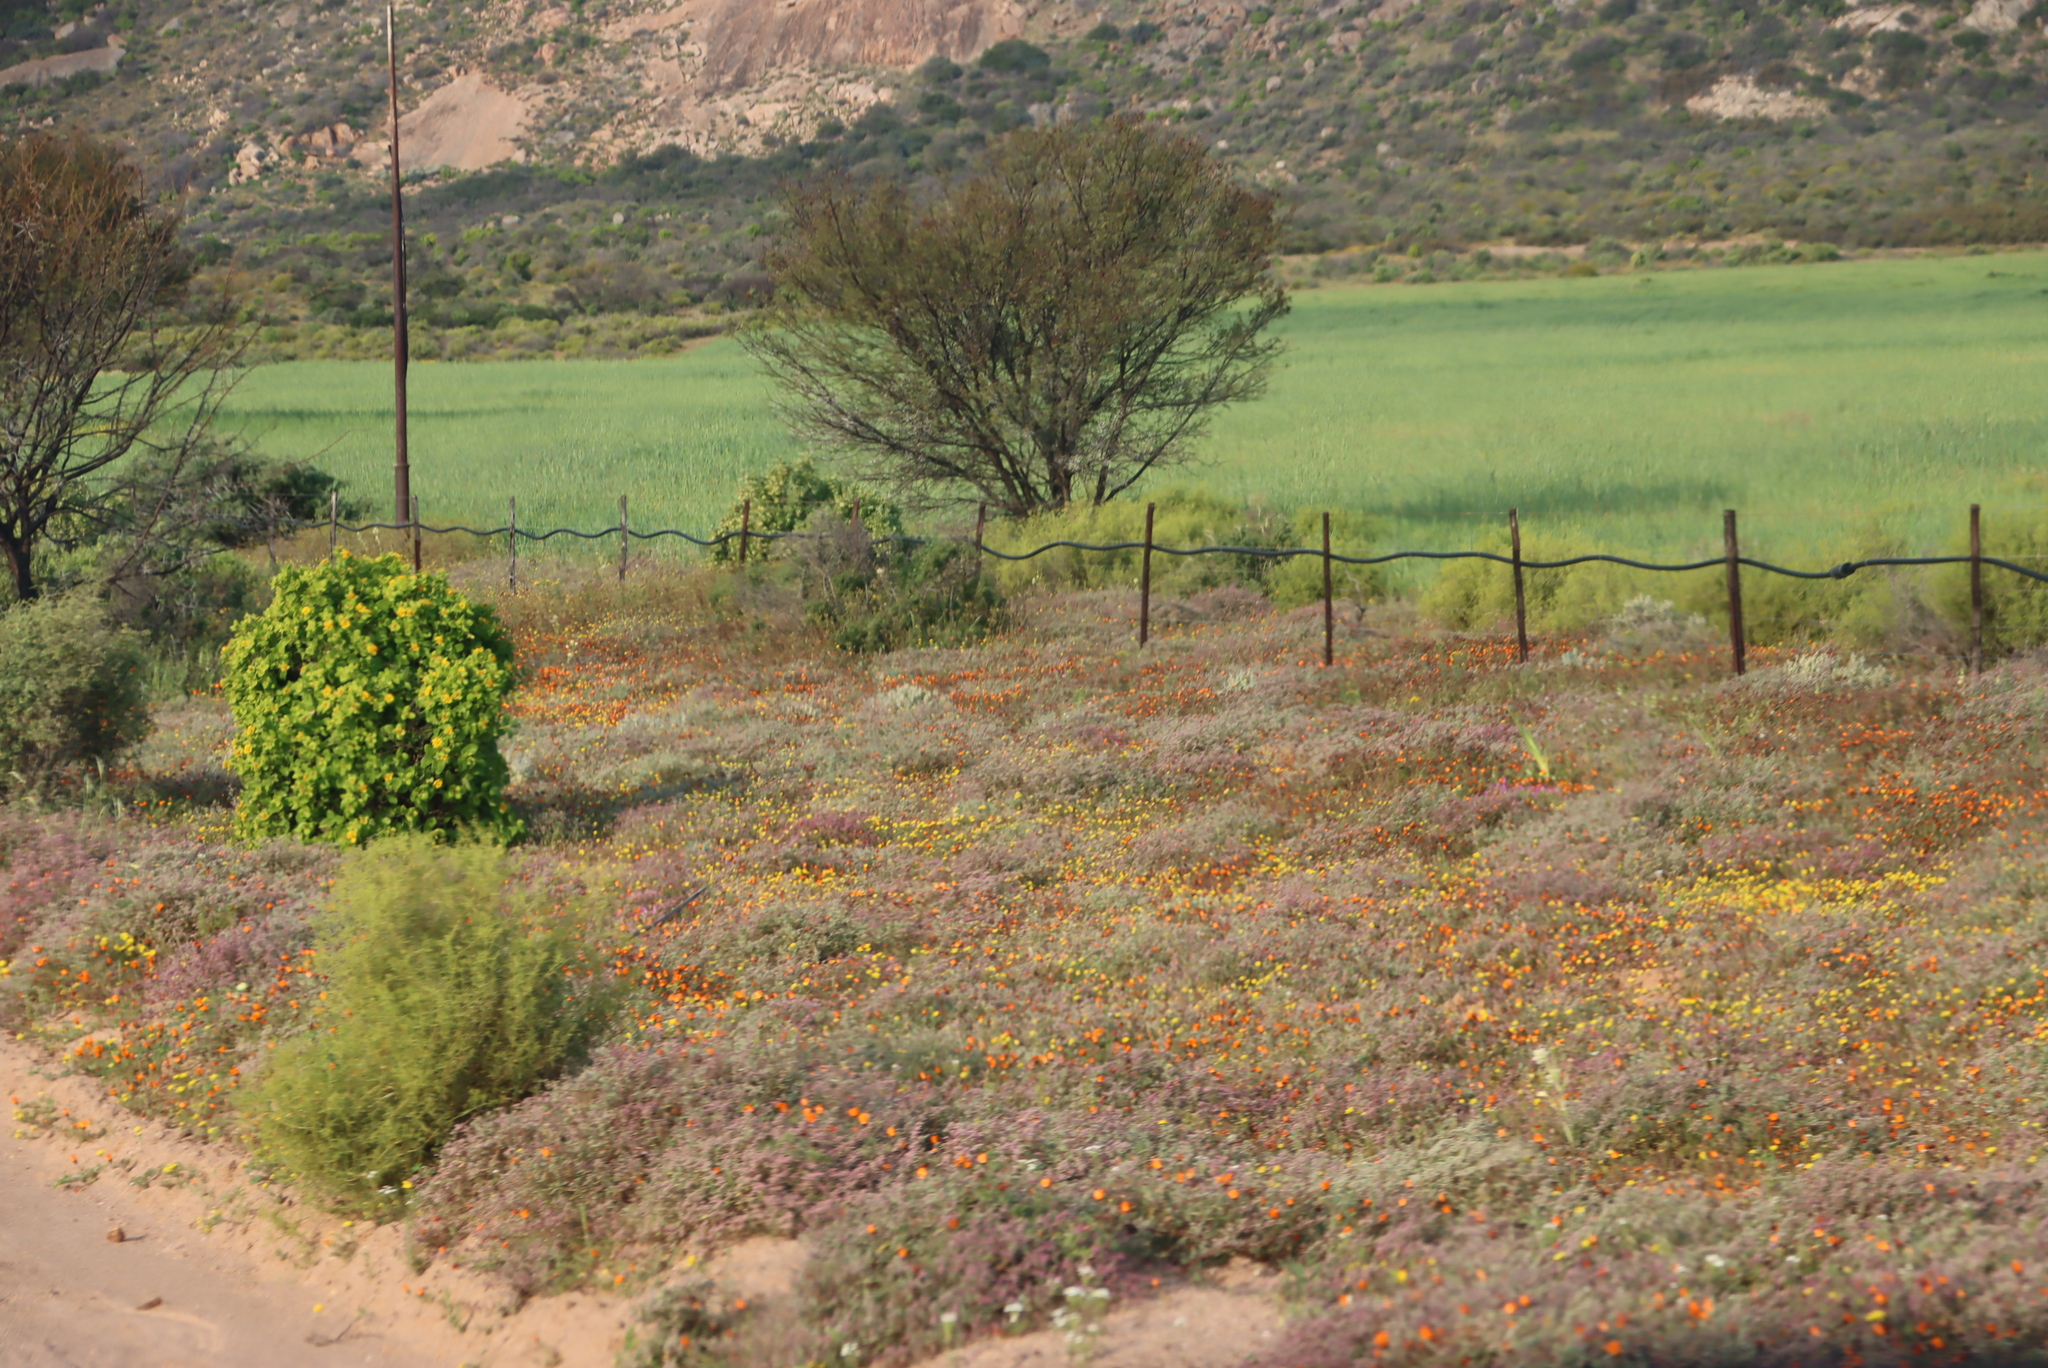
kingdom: Plantae
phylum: Tracheophyta
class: Magnoliopsida
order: Fabales
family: Fabaceae
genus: Vachellia
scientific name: Vachellia karroo
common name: Sweet thorn
